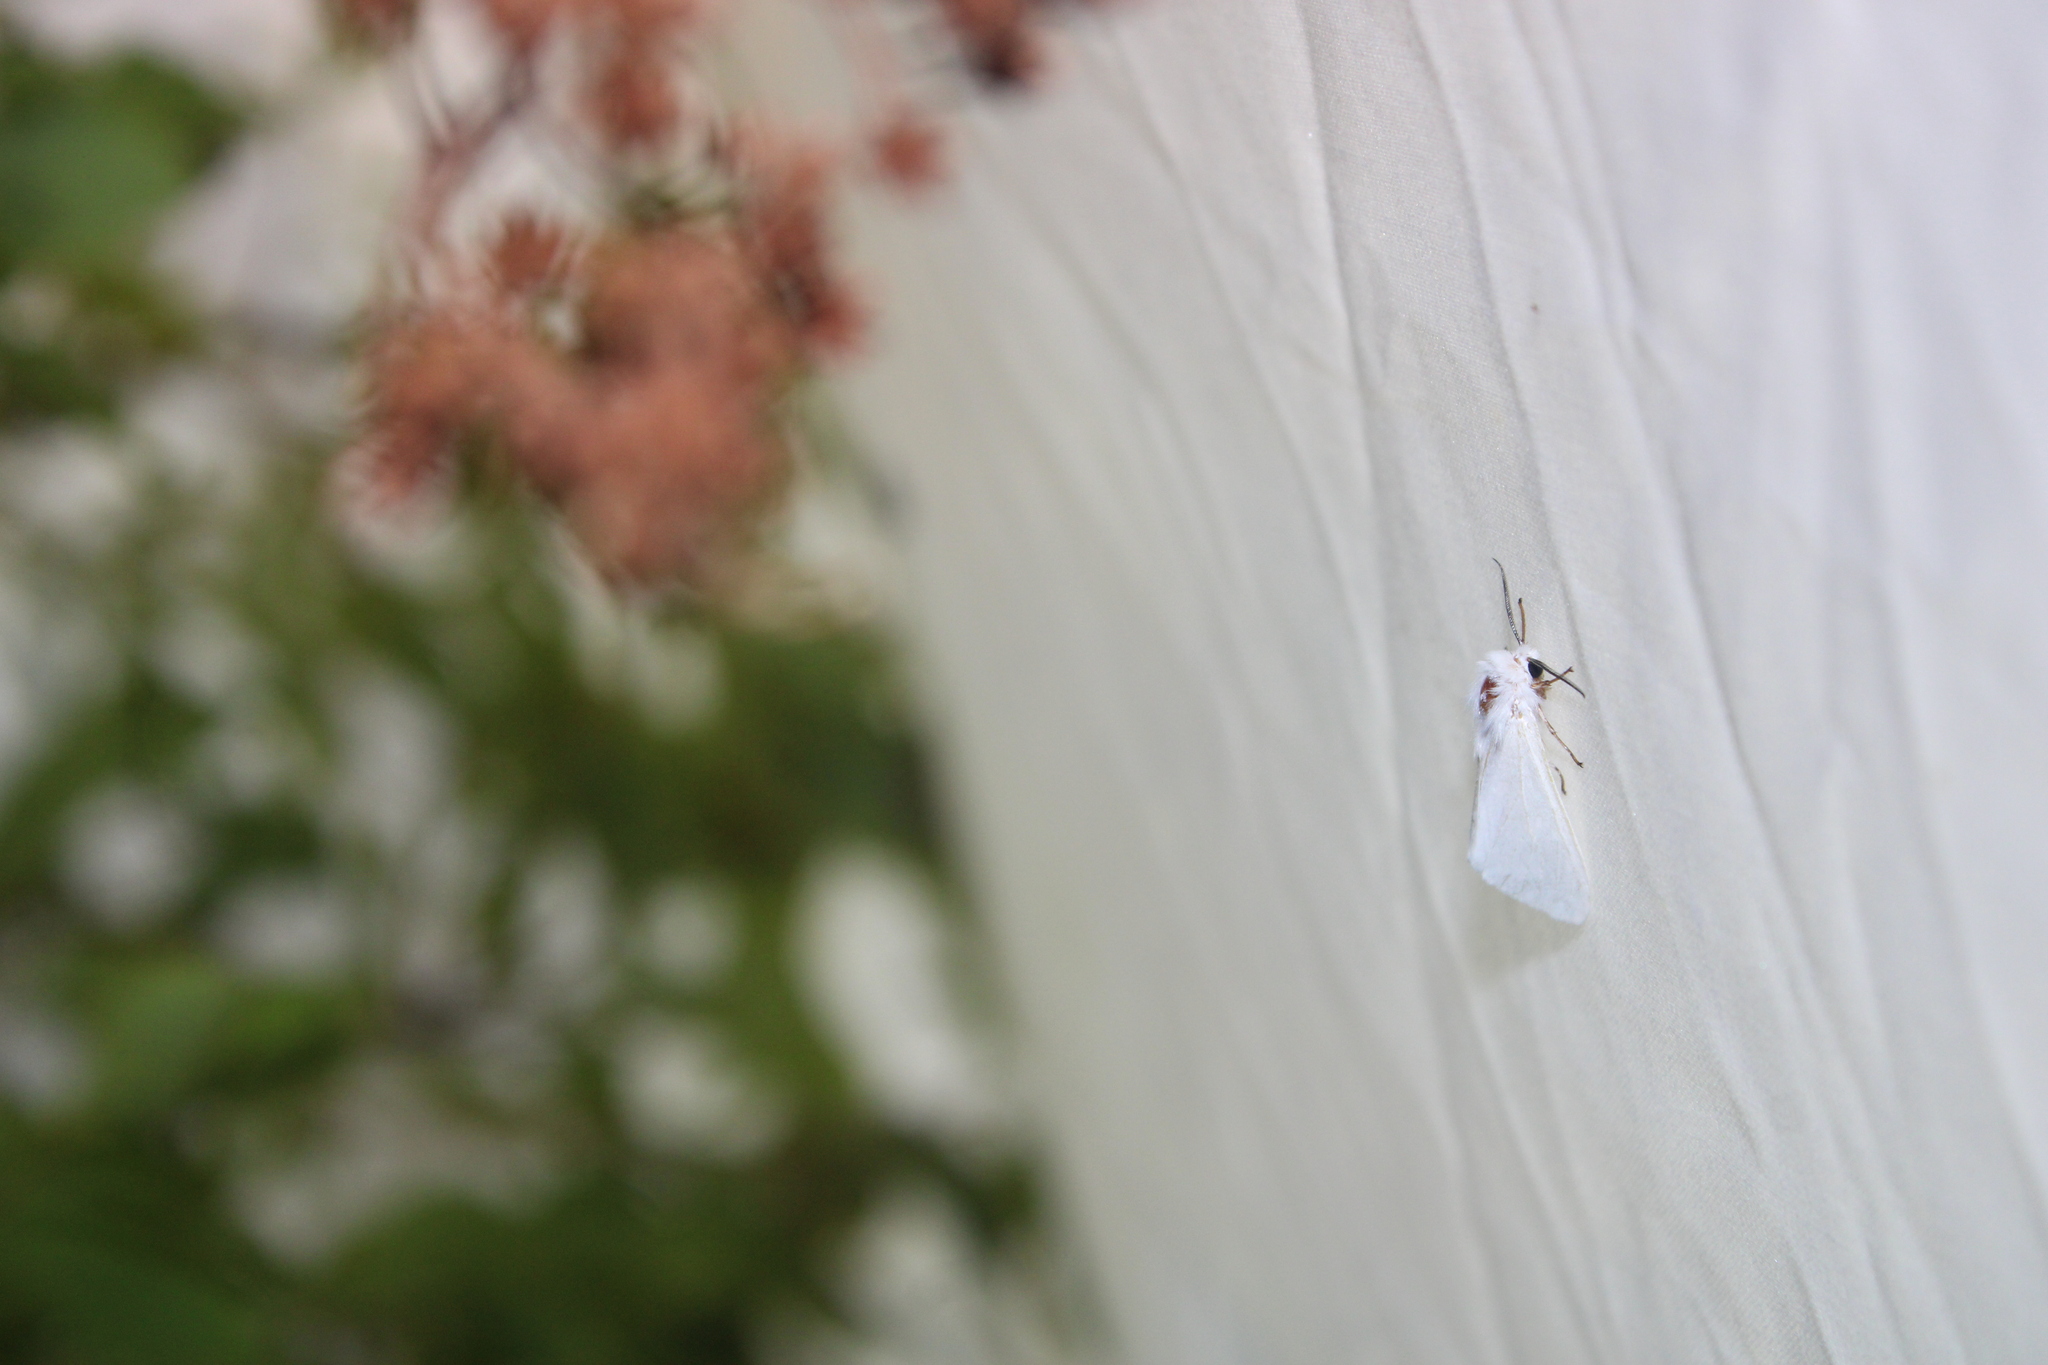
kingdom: Animalia
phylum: Arthropoda
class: Insecta
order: Lepidoptera
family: Erebidae
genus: Hyphantria
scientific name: Hyphantria cunea
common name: American white moth
